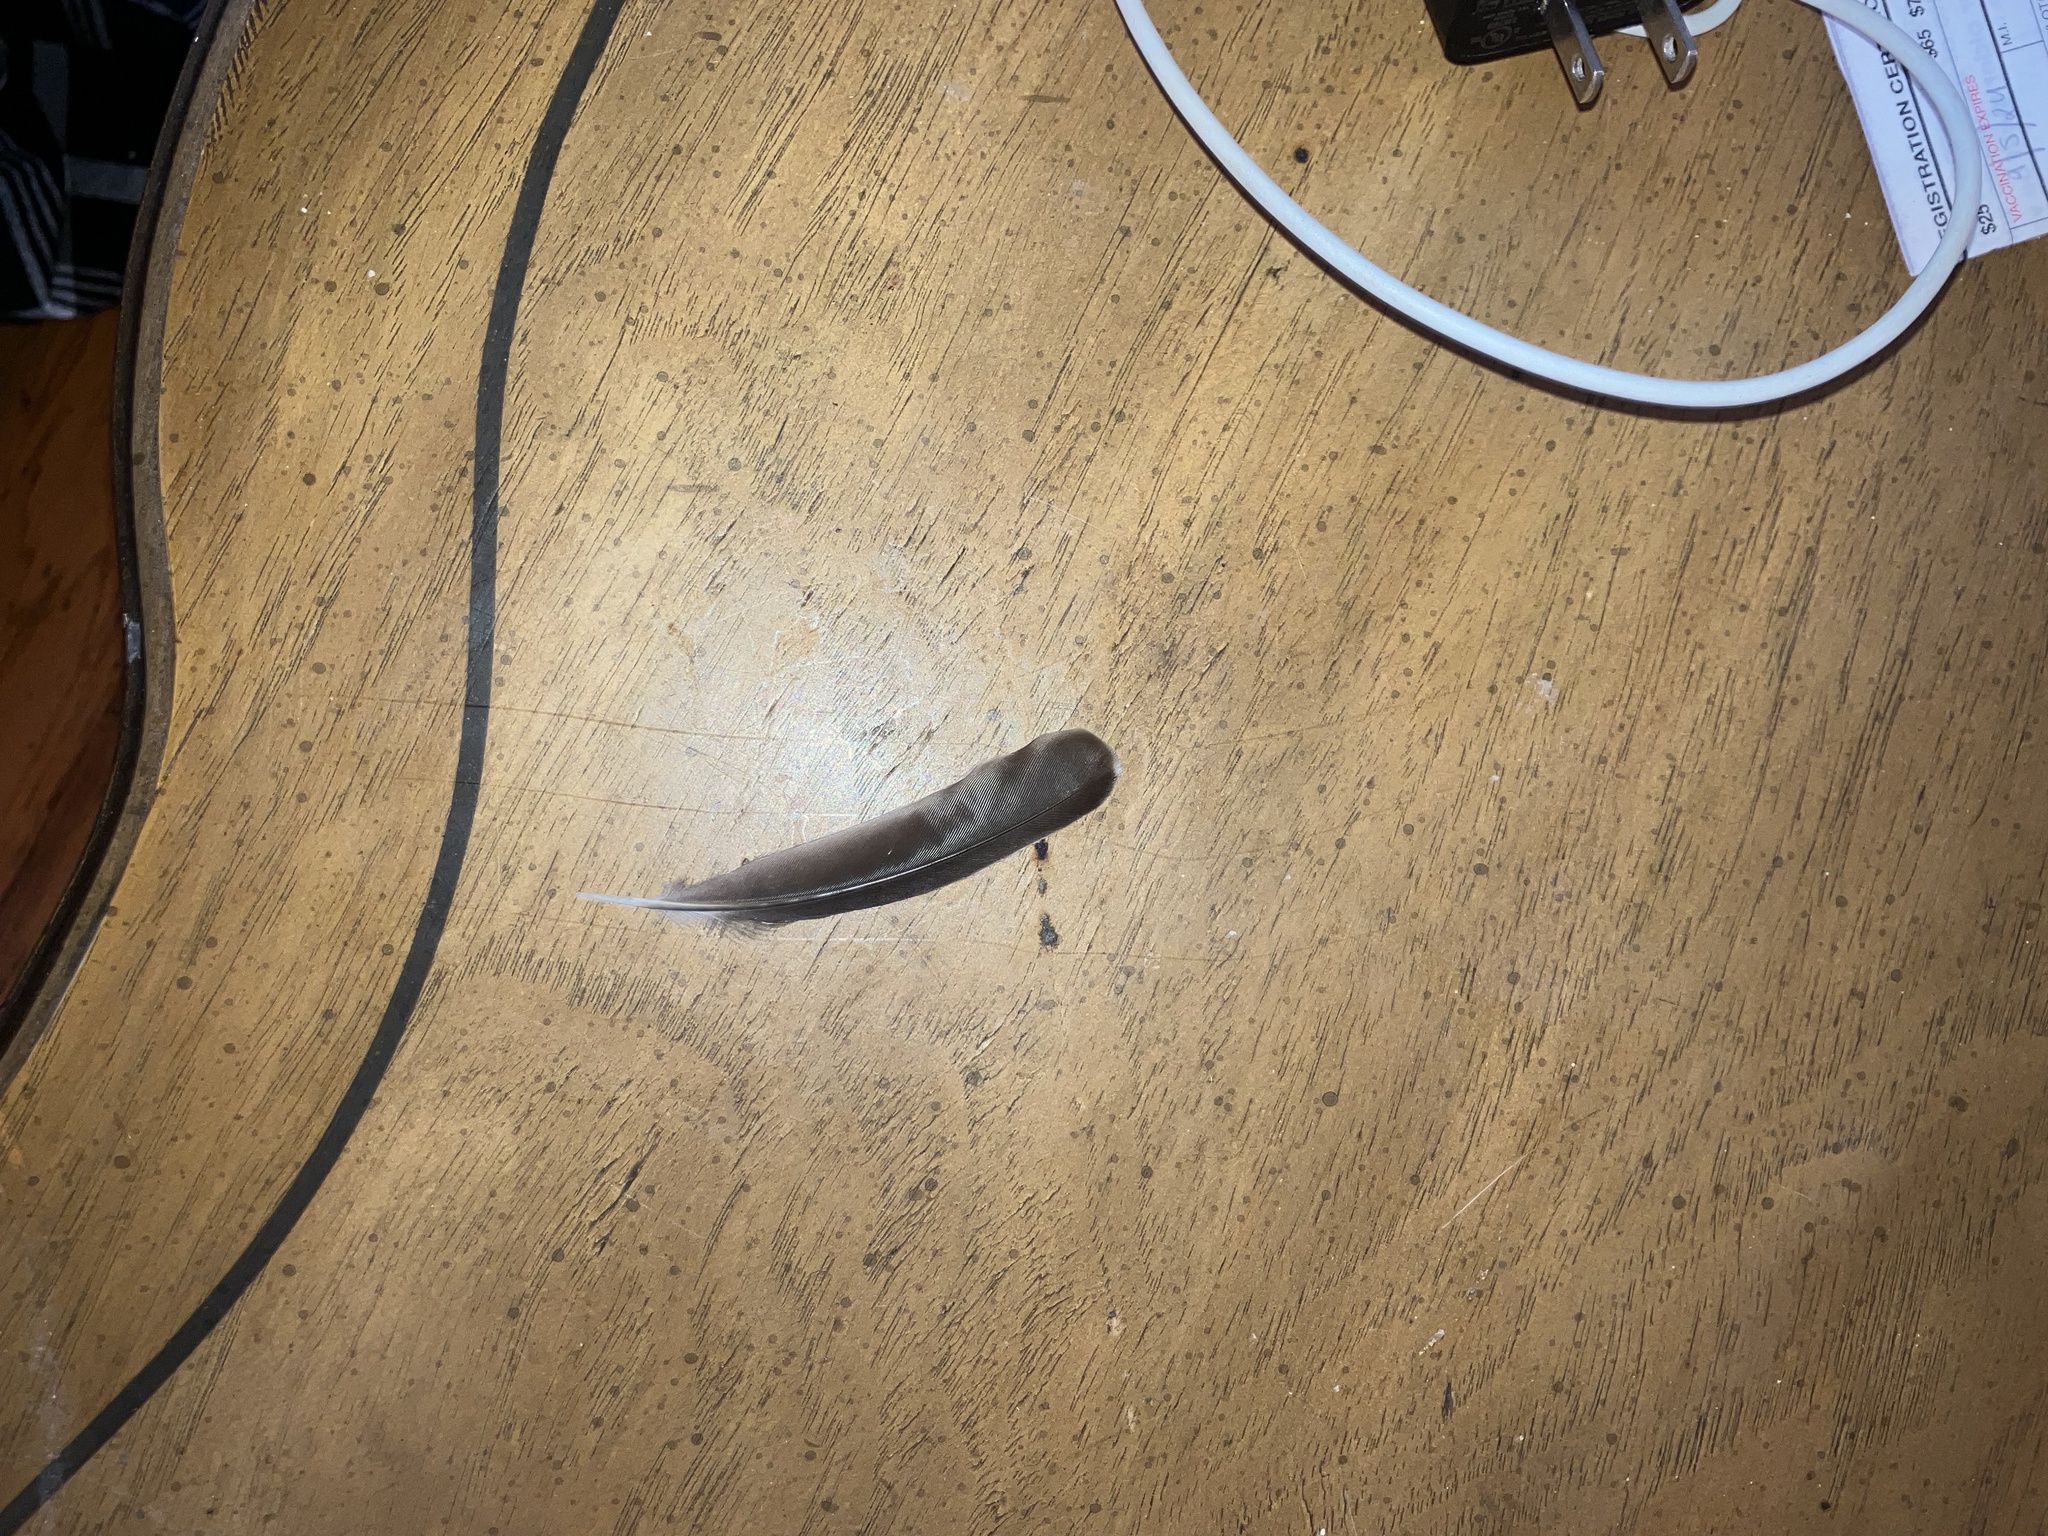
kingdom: Animalia
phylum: Chordata
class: Aves
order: Passeriformes
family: Mimidae
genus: Mimus
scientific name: Mimus polyglottos
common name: Northern mockingbird
